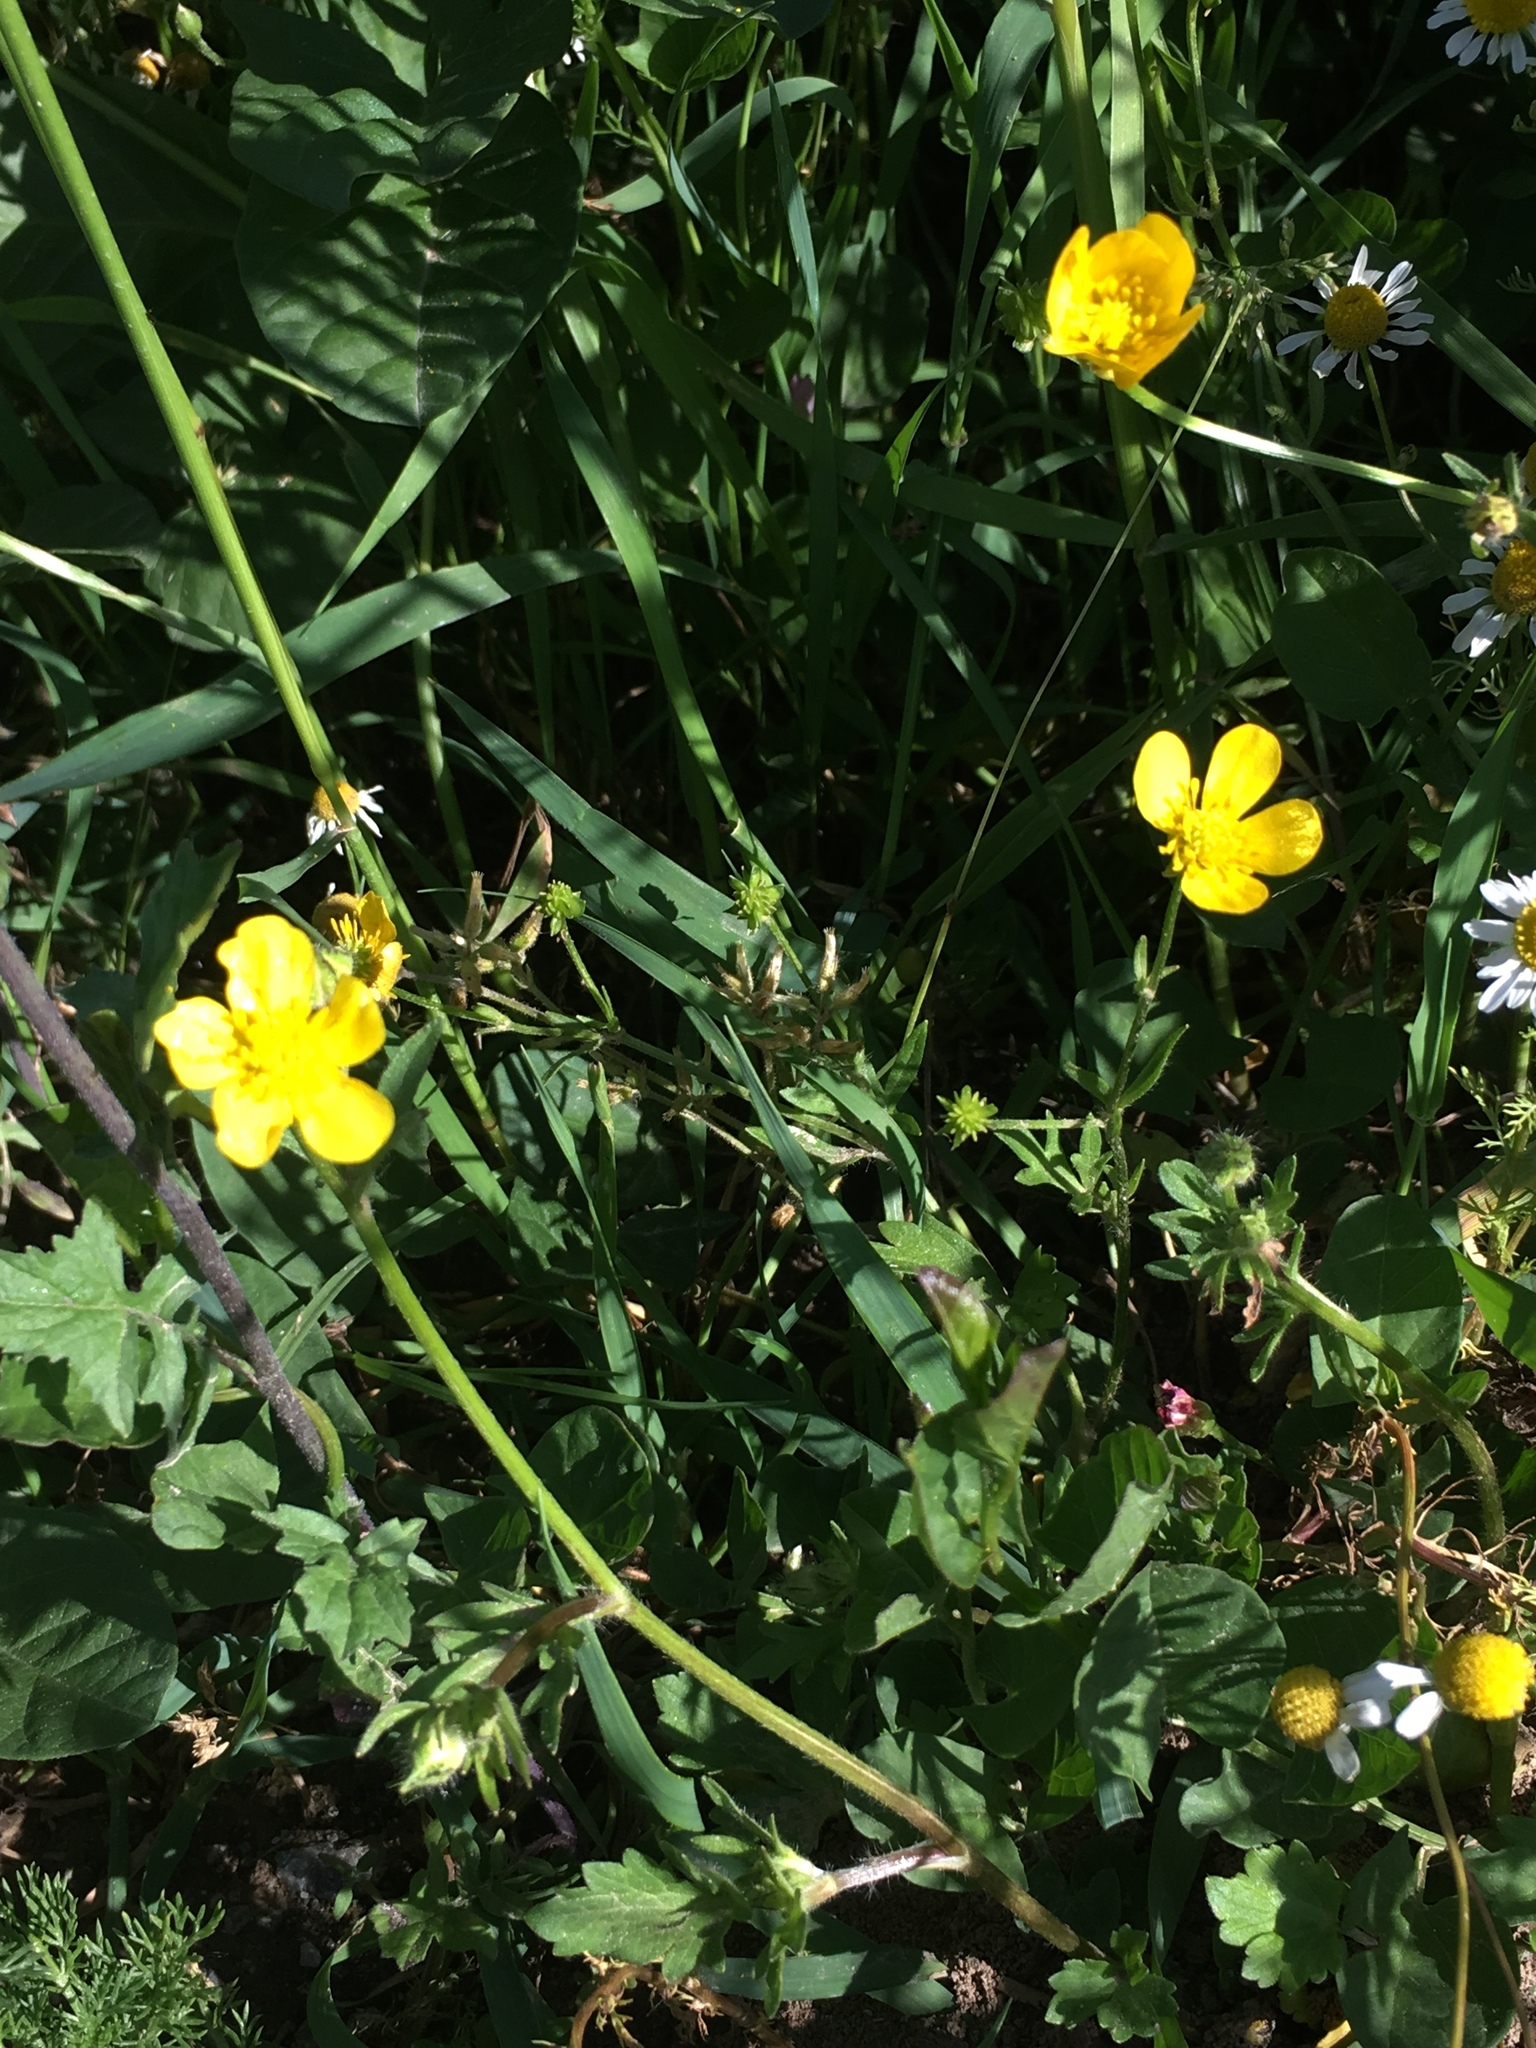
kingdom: Plantae
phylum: Tracheophyta
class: Magnoliopsida
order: Ranunculales
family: Ranunculaceae
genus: Ranunculus
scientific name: Ranunculus repens
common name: Creeping buttercup
